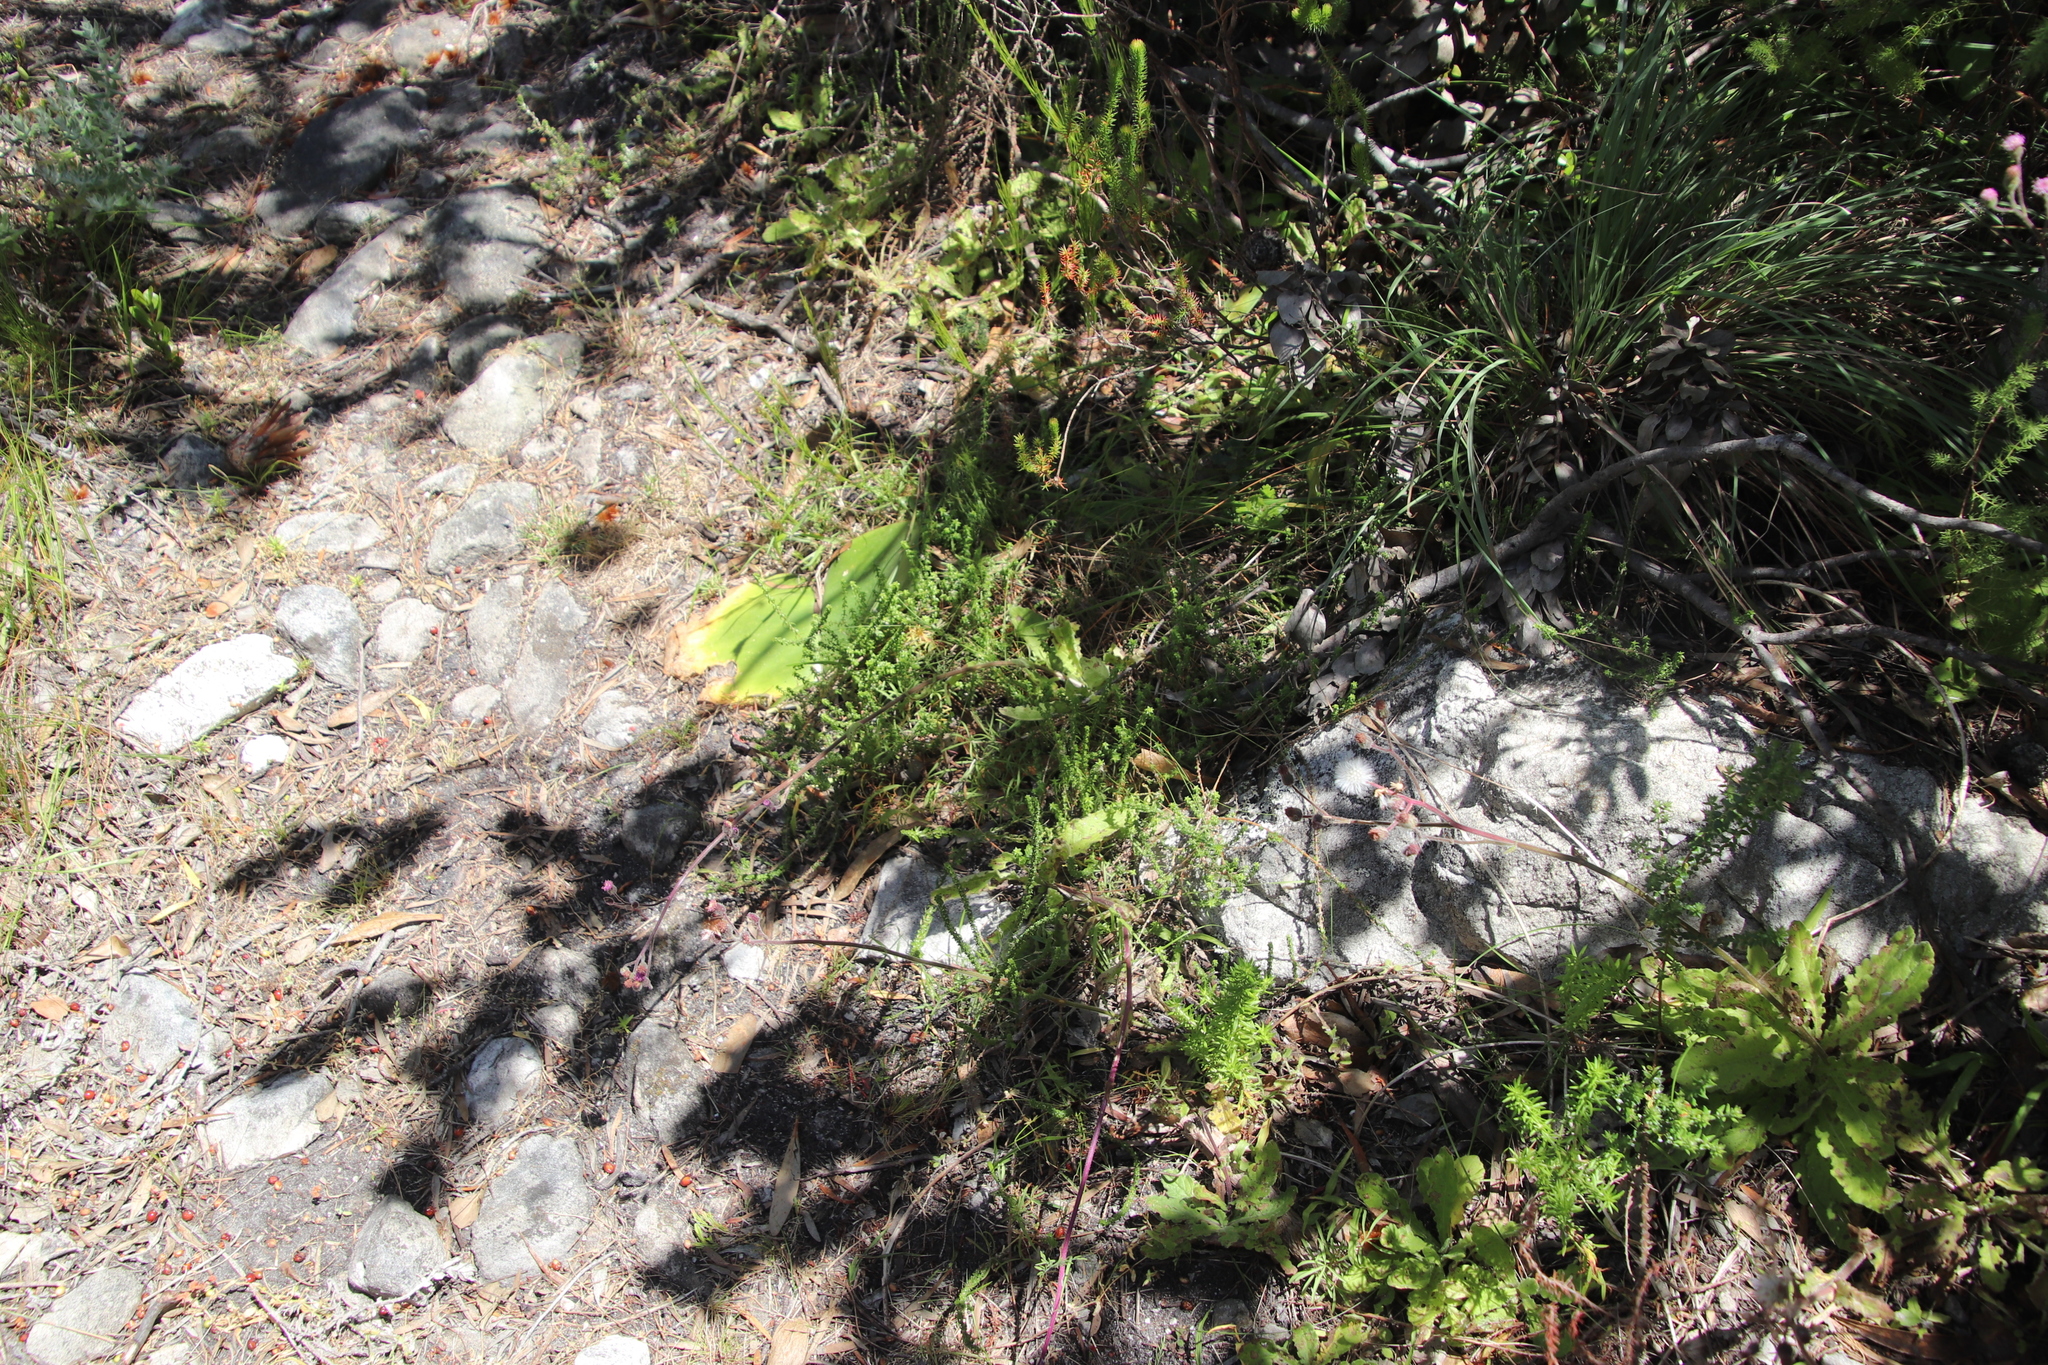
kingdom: Plantae
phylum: Tracheophyta
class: Liliopsida
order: Asparagales
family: Amaryllidaceae
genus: Haemanthus
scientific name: Haemanthus sanguineus
